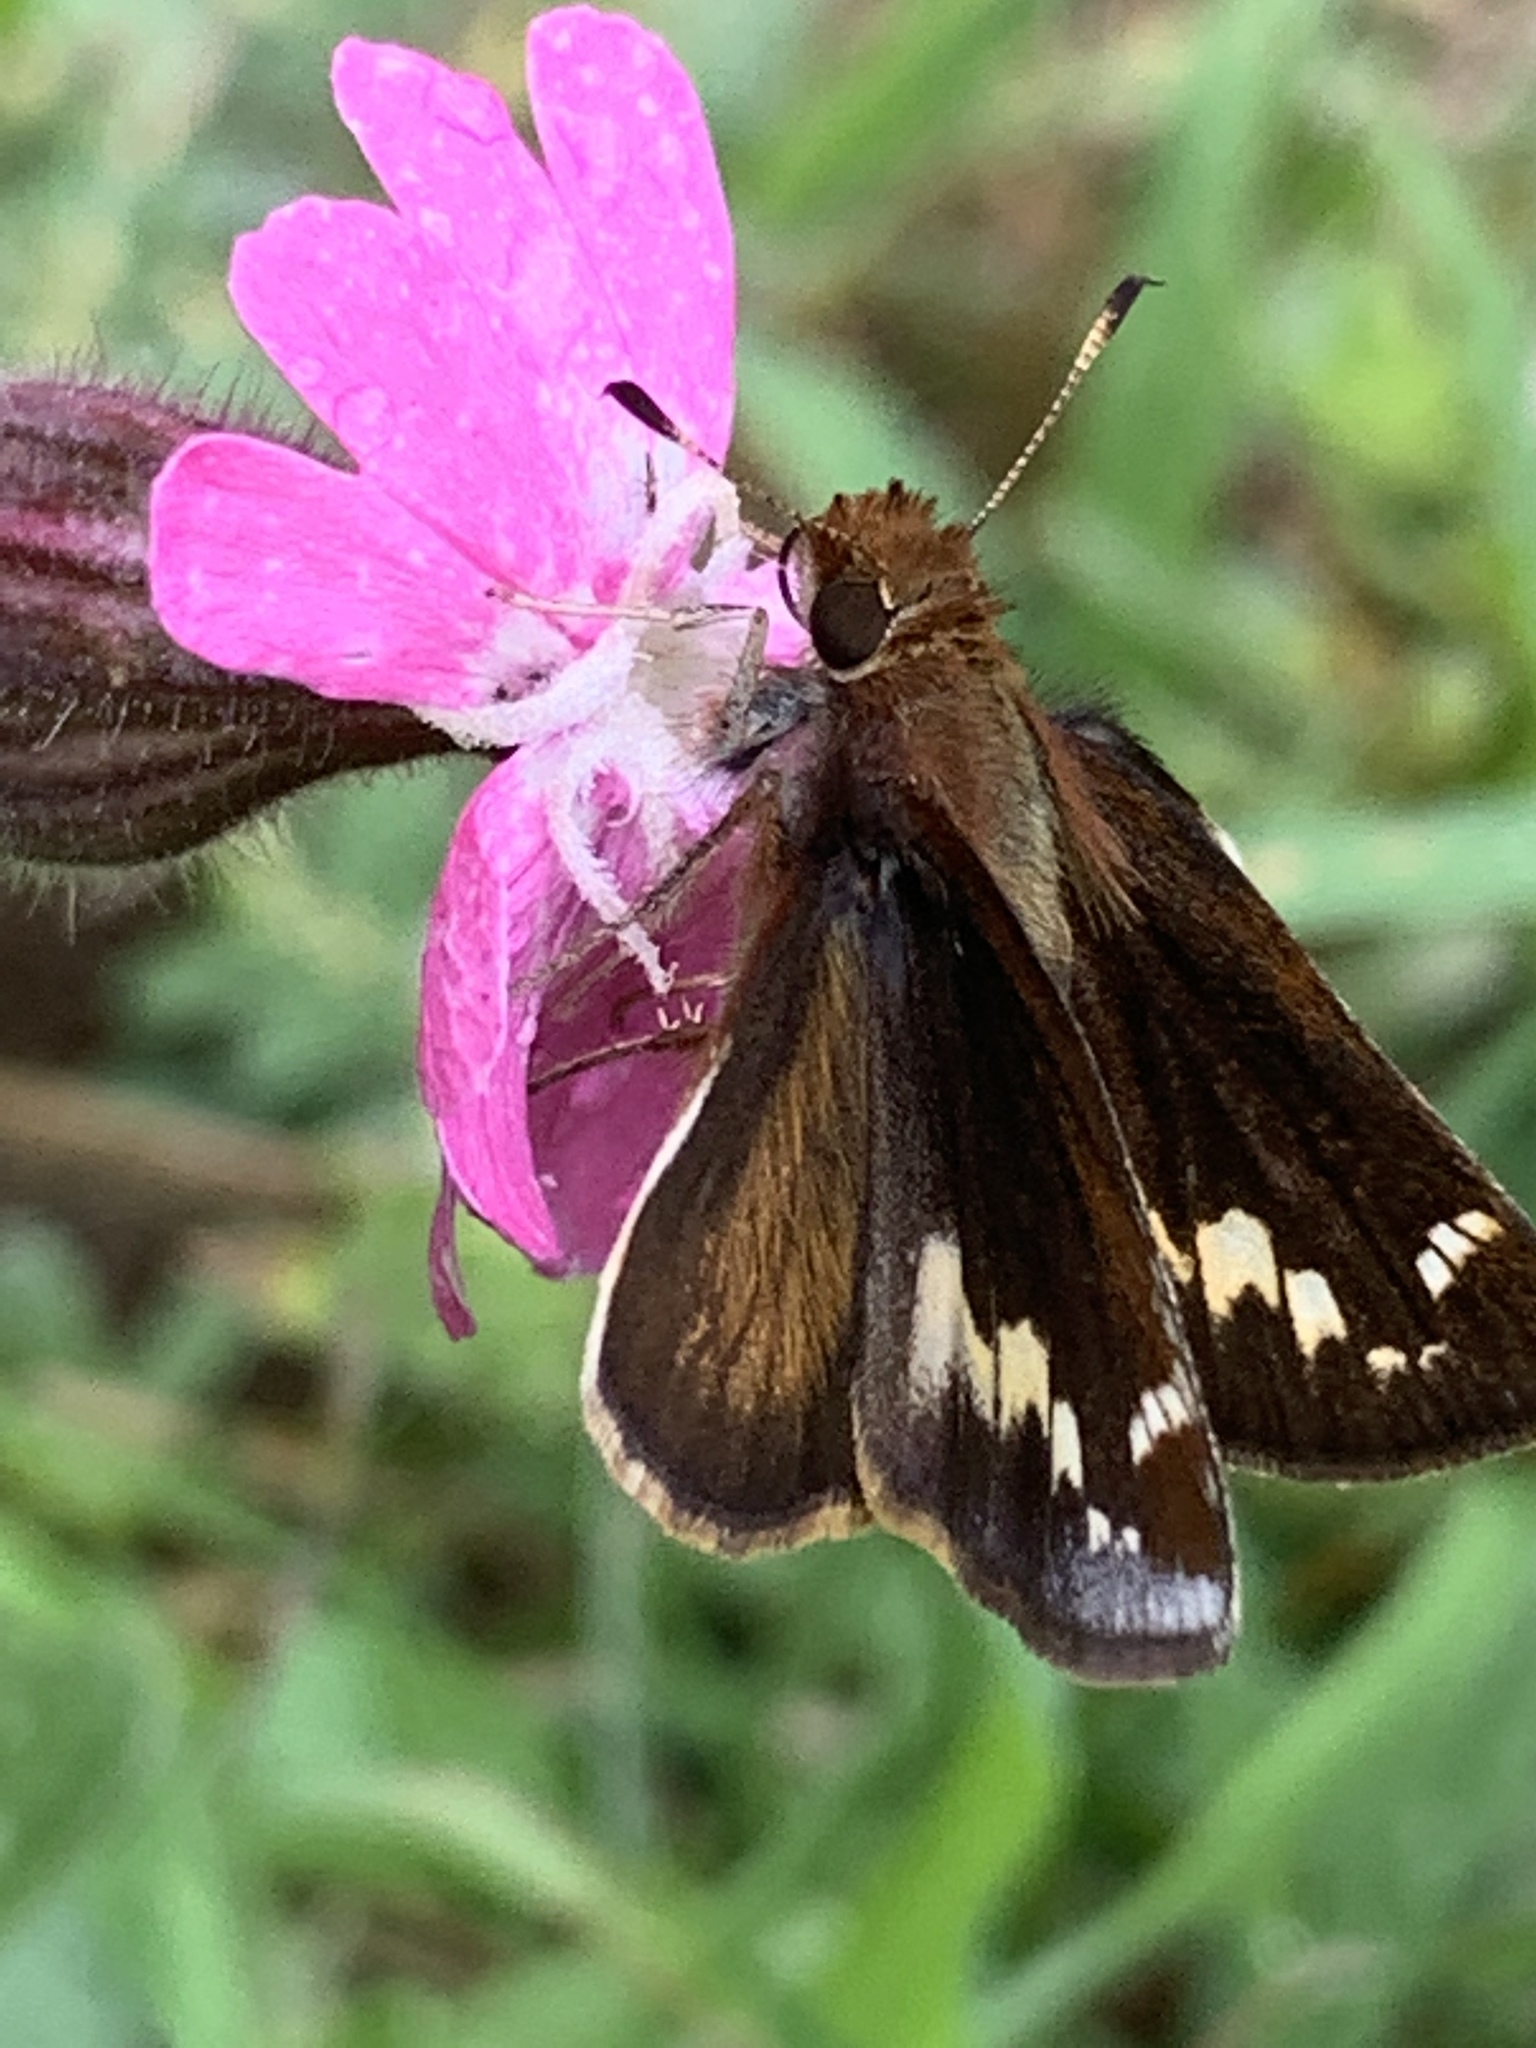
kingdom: Animalia
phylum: Arthropoda
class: Insecta
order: Lepidoptera
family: Hesperiidae
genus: Lon
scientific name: Lon zabulon
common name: Zabulon skipper
